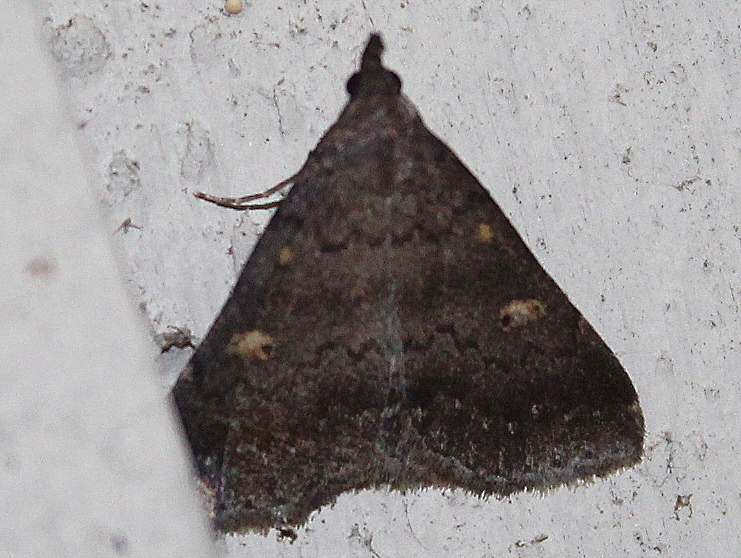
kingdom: Animalia
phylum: Arthropoda
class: Insecta
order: Lepidoptera
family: Erebidae
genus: Renia
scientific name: Renia sobrialis
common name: Sober renia moth
